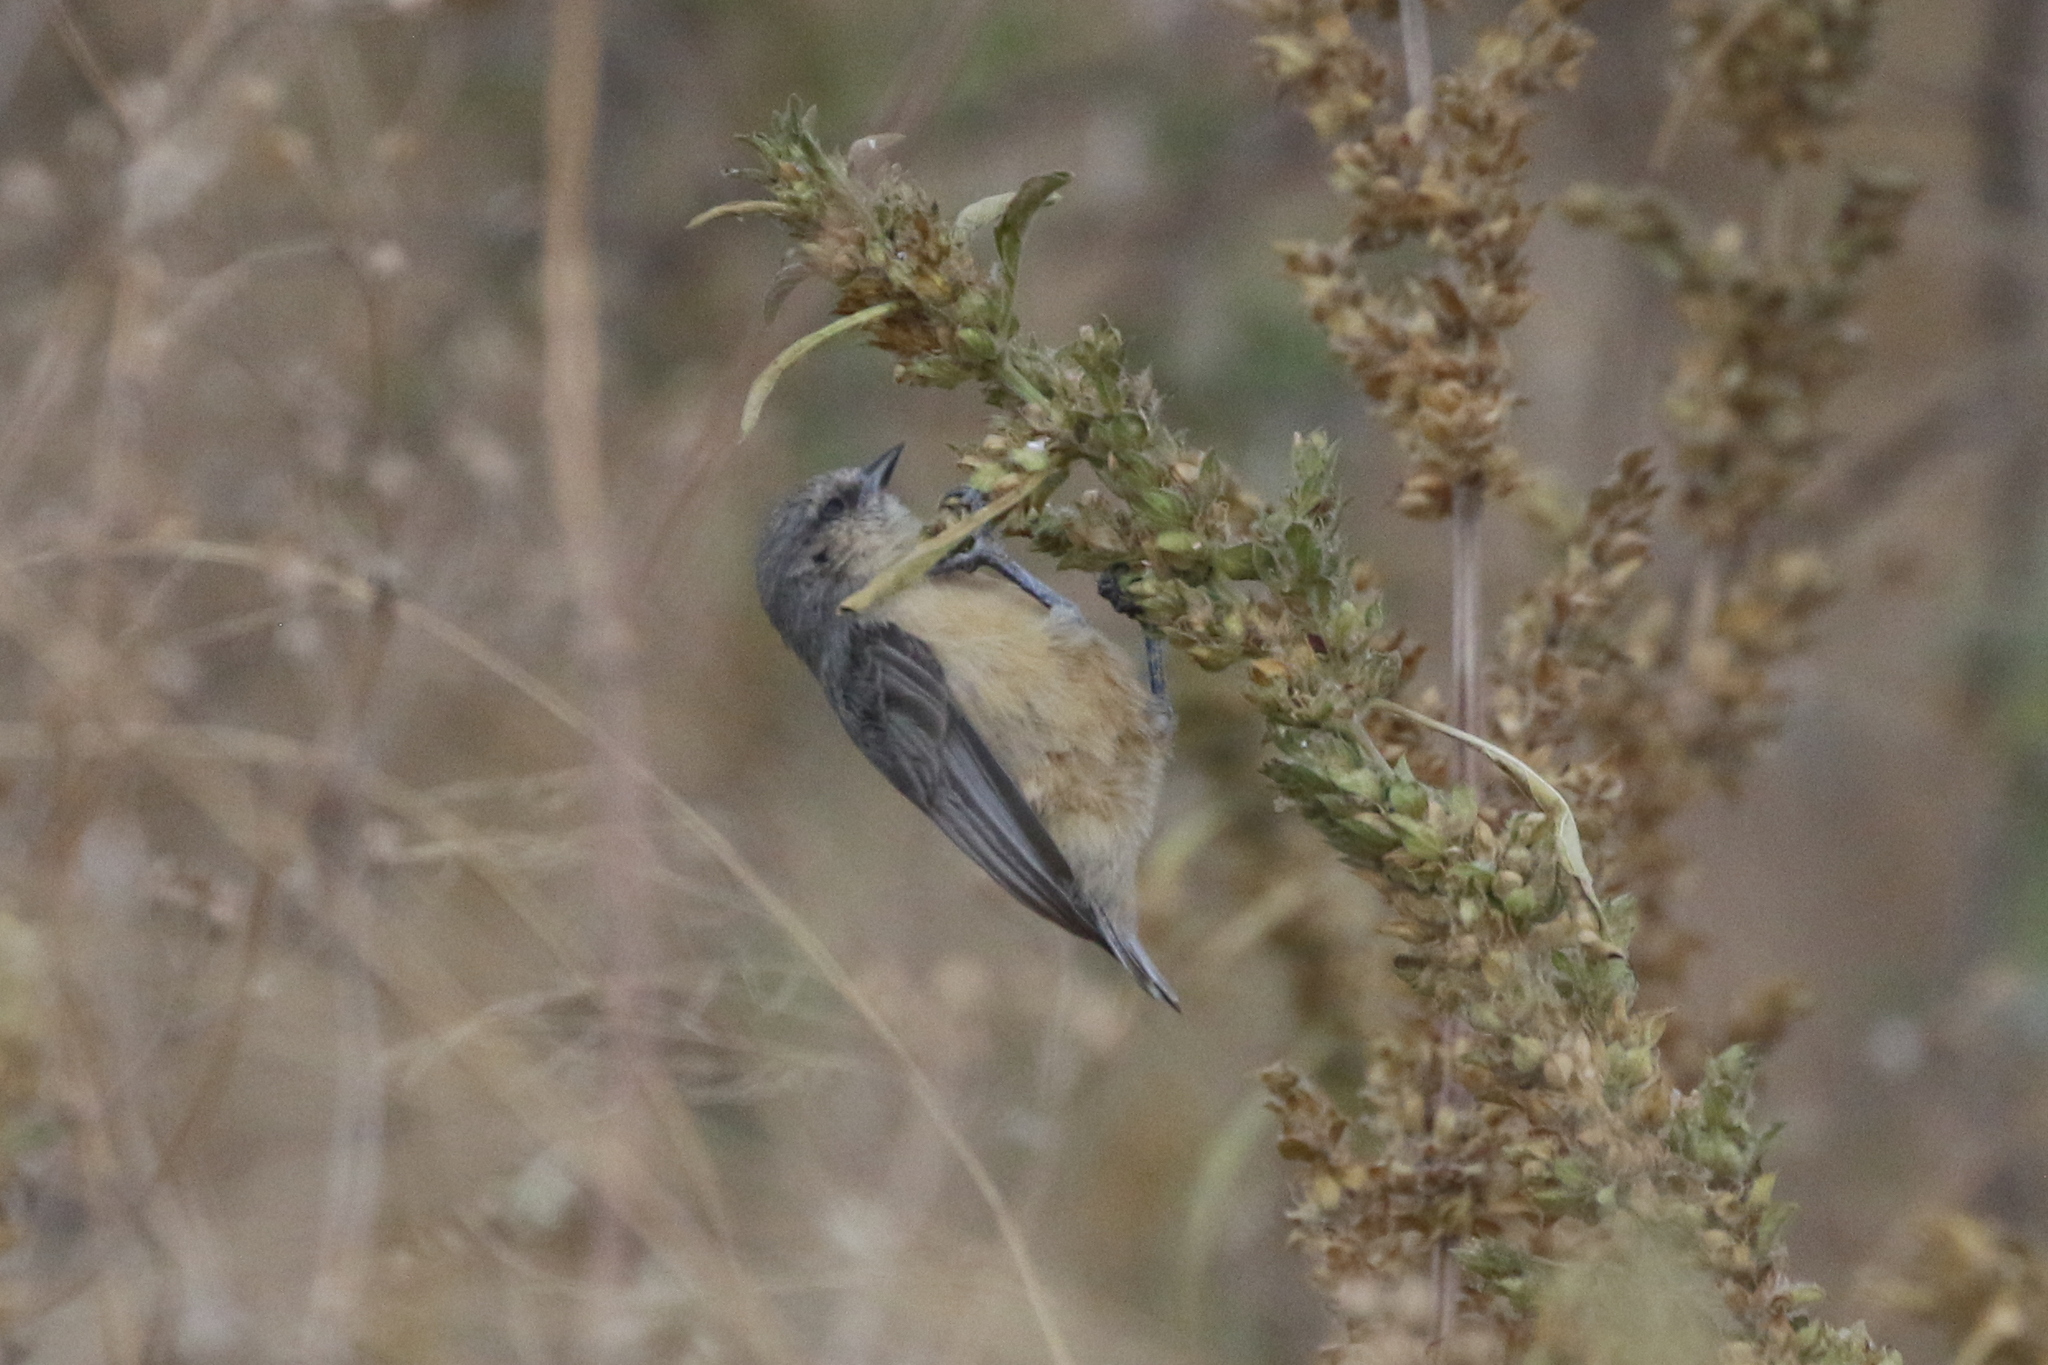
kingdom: Animalia
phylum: Chordata
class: Aves
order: Passeriformes
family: Remizidae
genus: Anthoscopus
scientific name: Anthoscopus caroli
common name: Grey penduline tit
